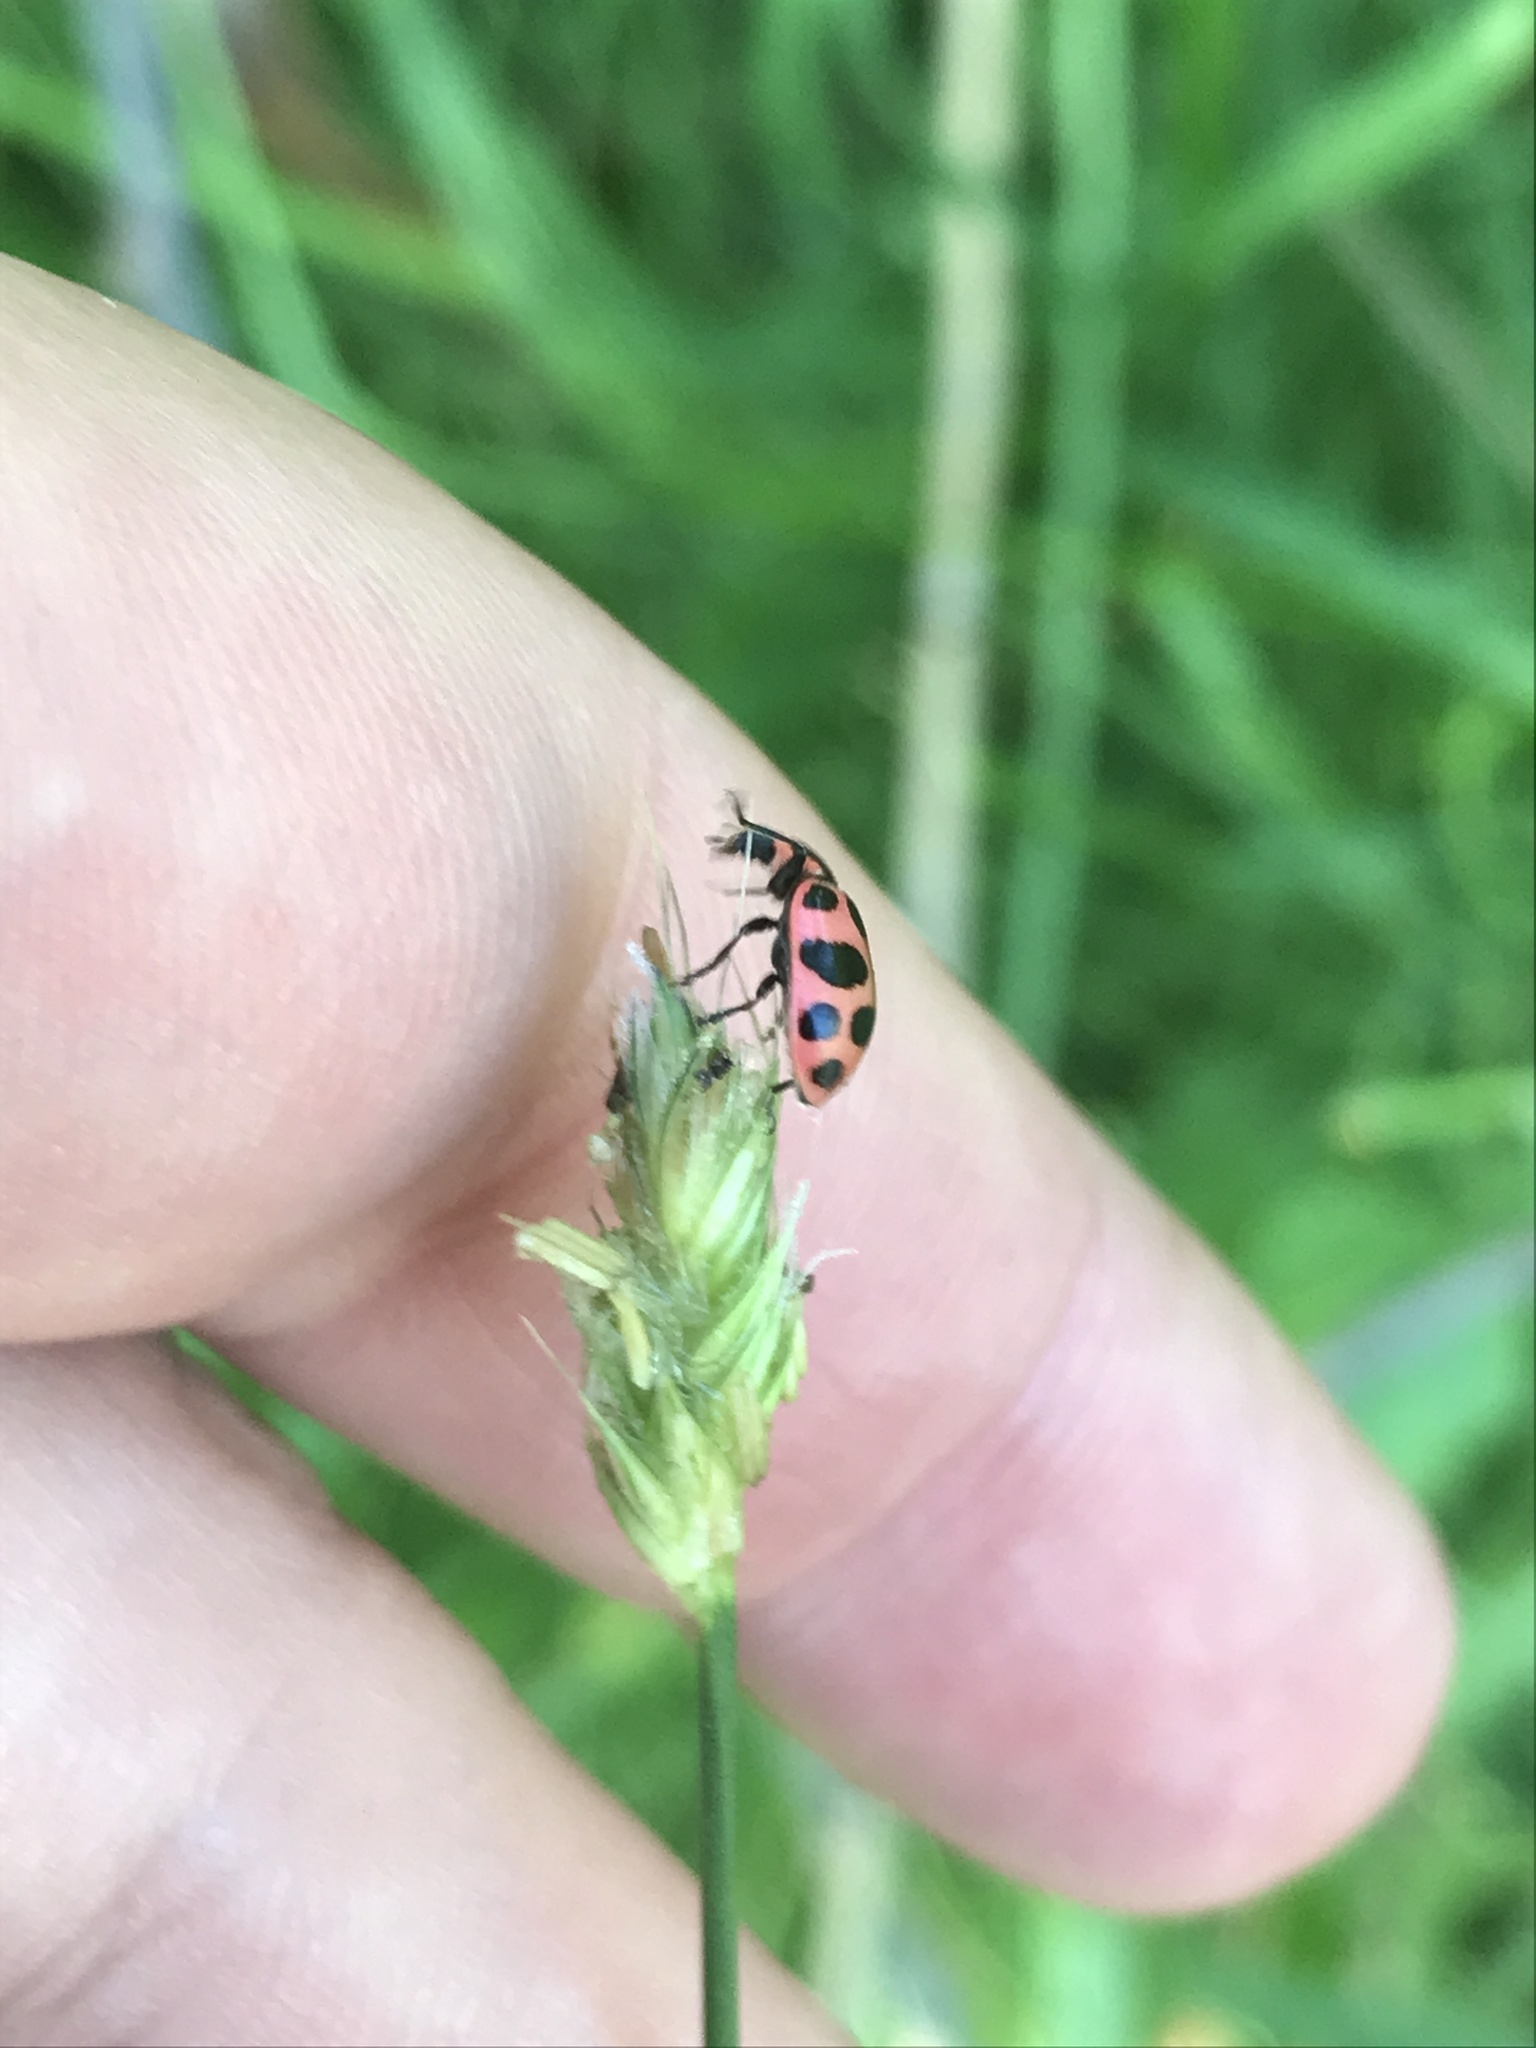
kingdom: Animalia
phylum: Arthropoda
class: Insecta
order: Coleoptera
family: Coccinellidae
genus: Coleomegilla
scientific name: Coleomegilla maculata
